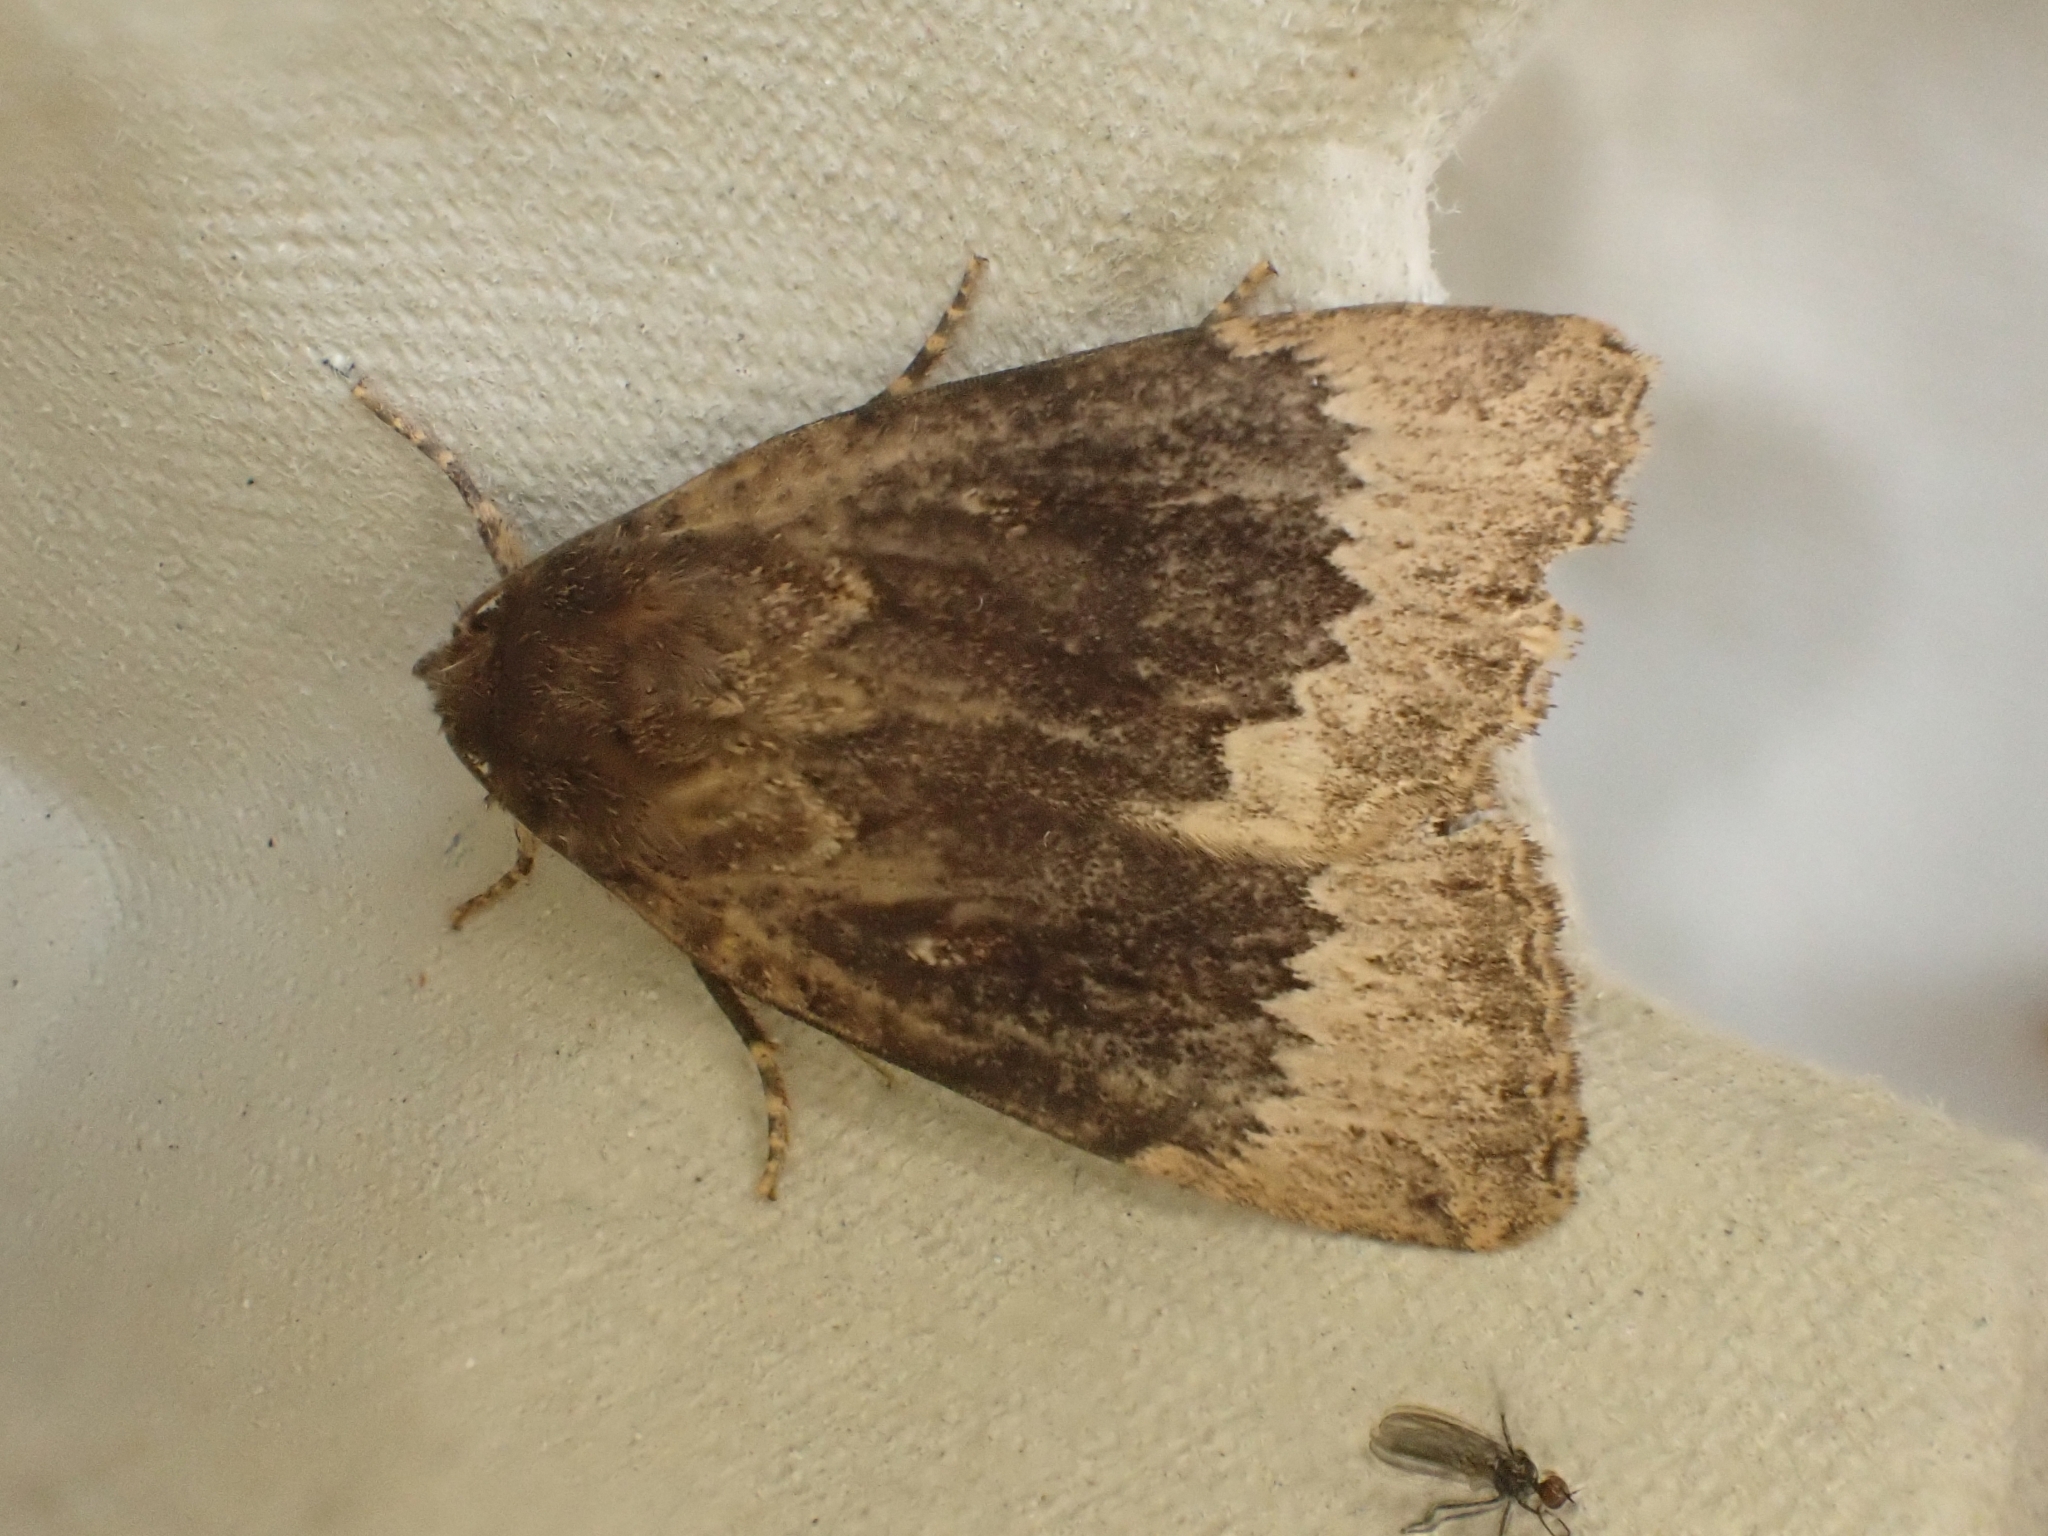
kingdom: Animalia
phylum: Arthropoda
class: Insecta
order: Lepidoptera
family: Noctuidae
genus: Amphipyra
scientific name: Amphipyra perflua
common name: Larger pale-tipped black moth
